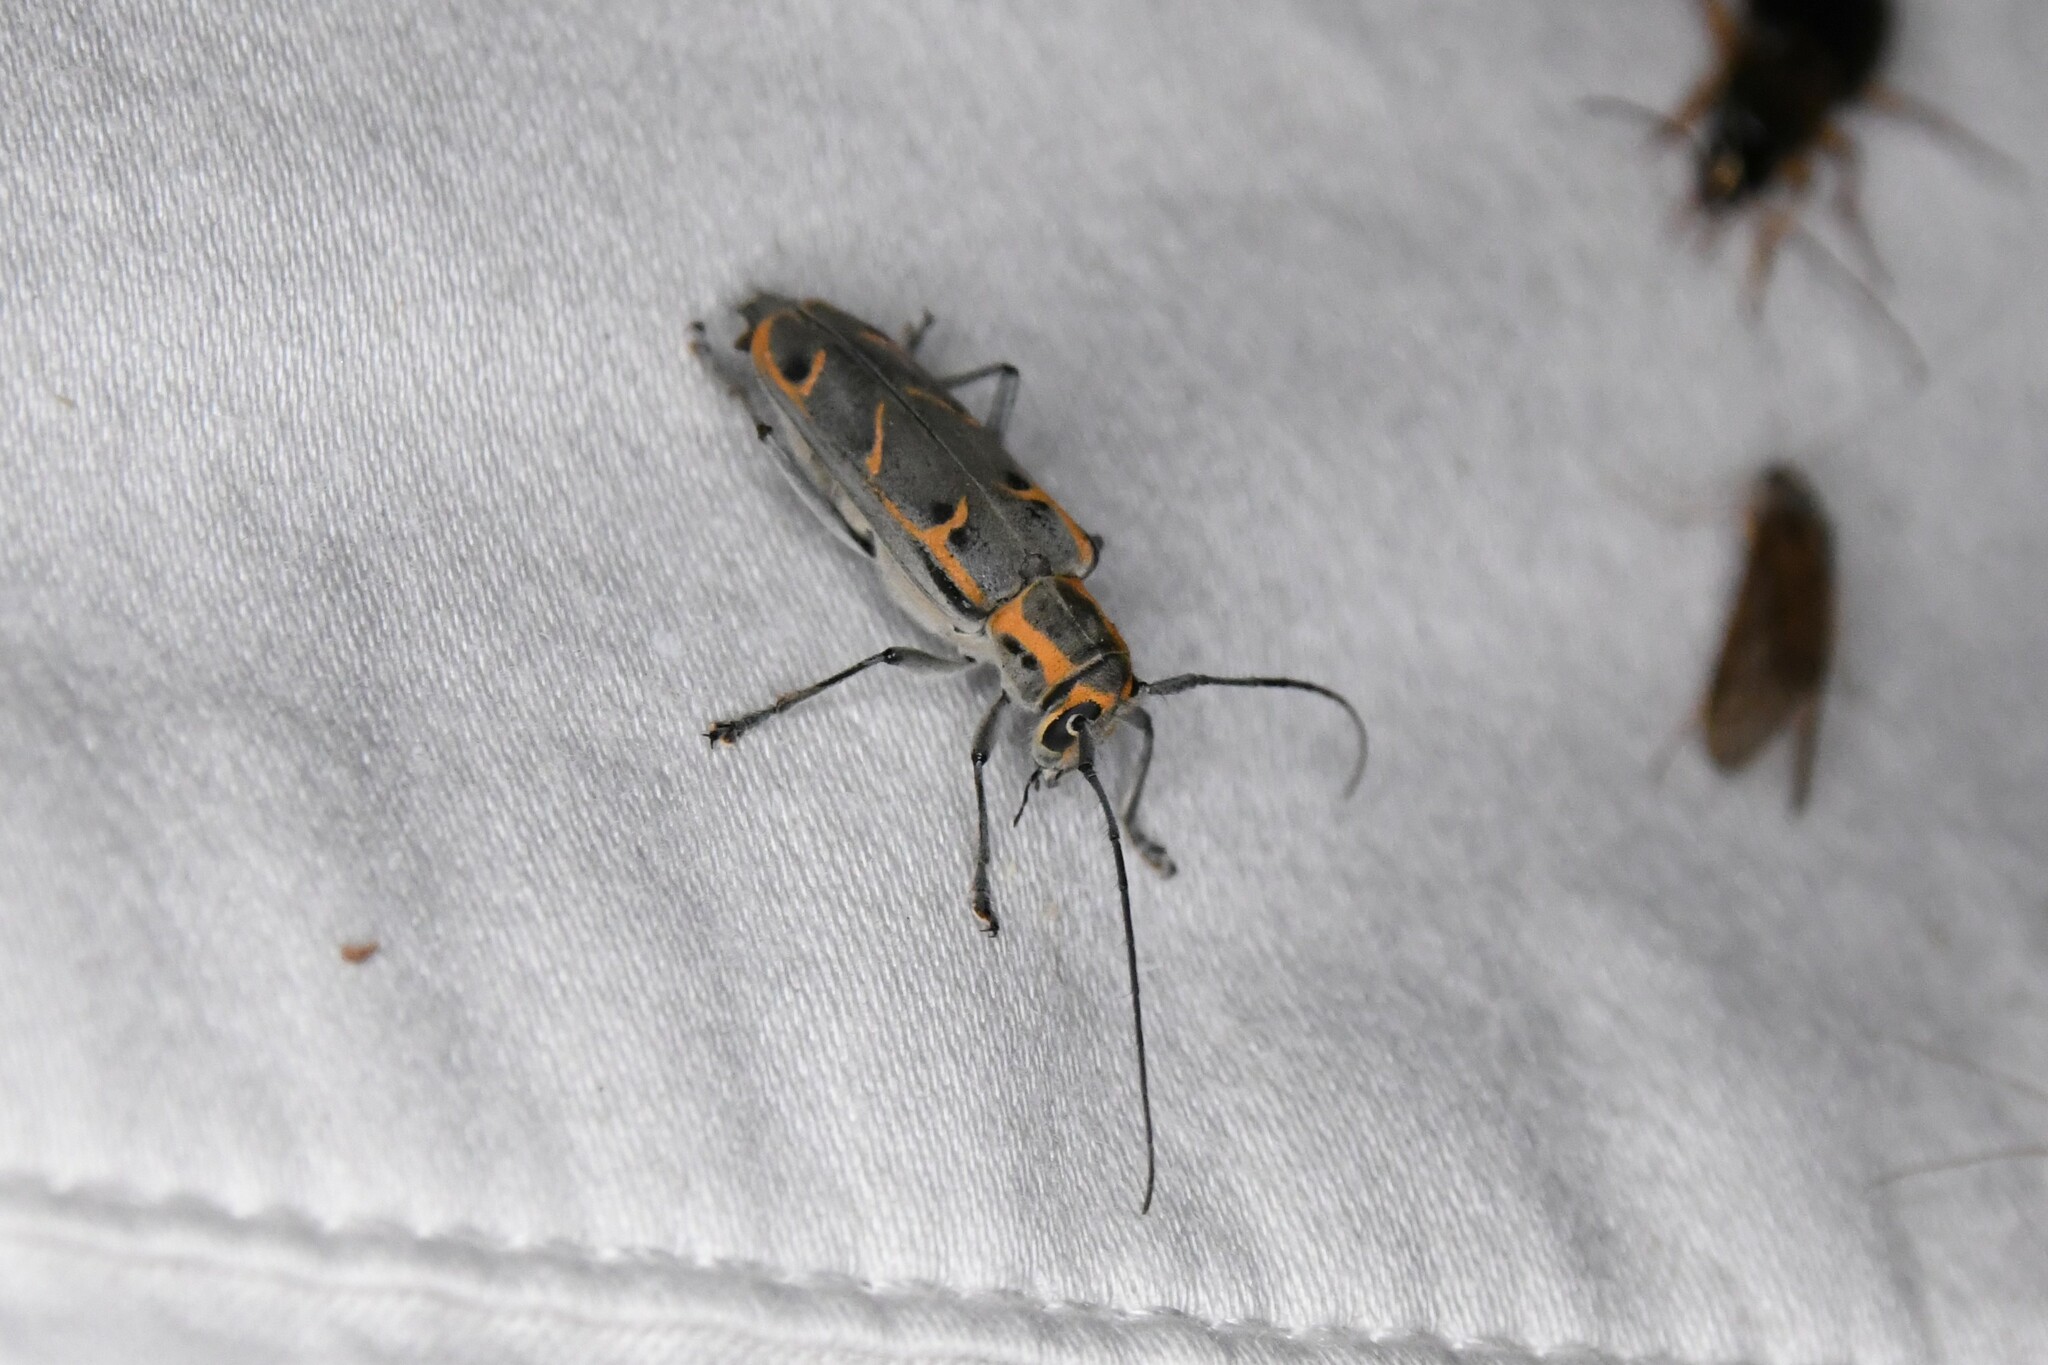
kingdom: Animalia
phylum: Arthropoda
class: Insecta
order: Coleoptera
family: Cerambycidae
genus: Saperda
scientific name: Saperda tridentata
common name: Elm borer
